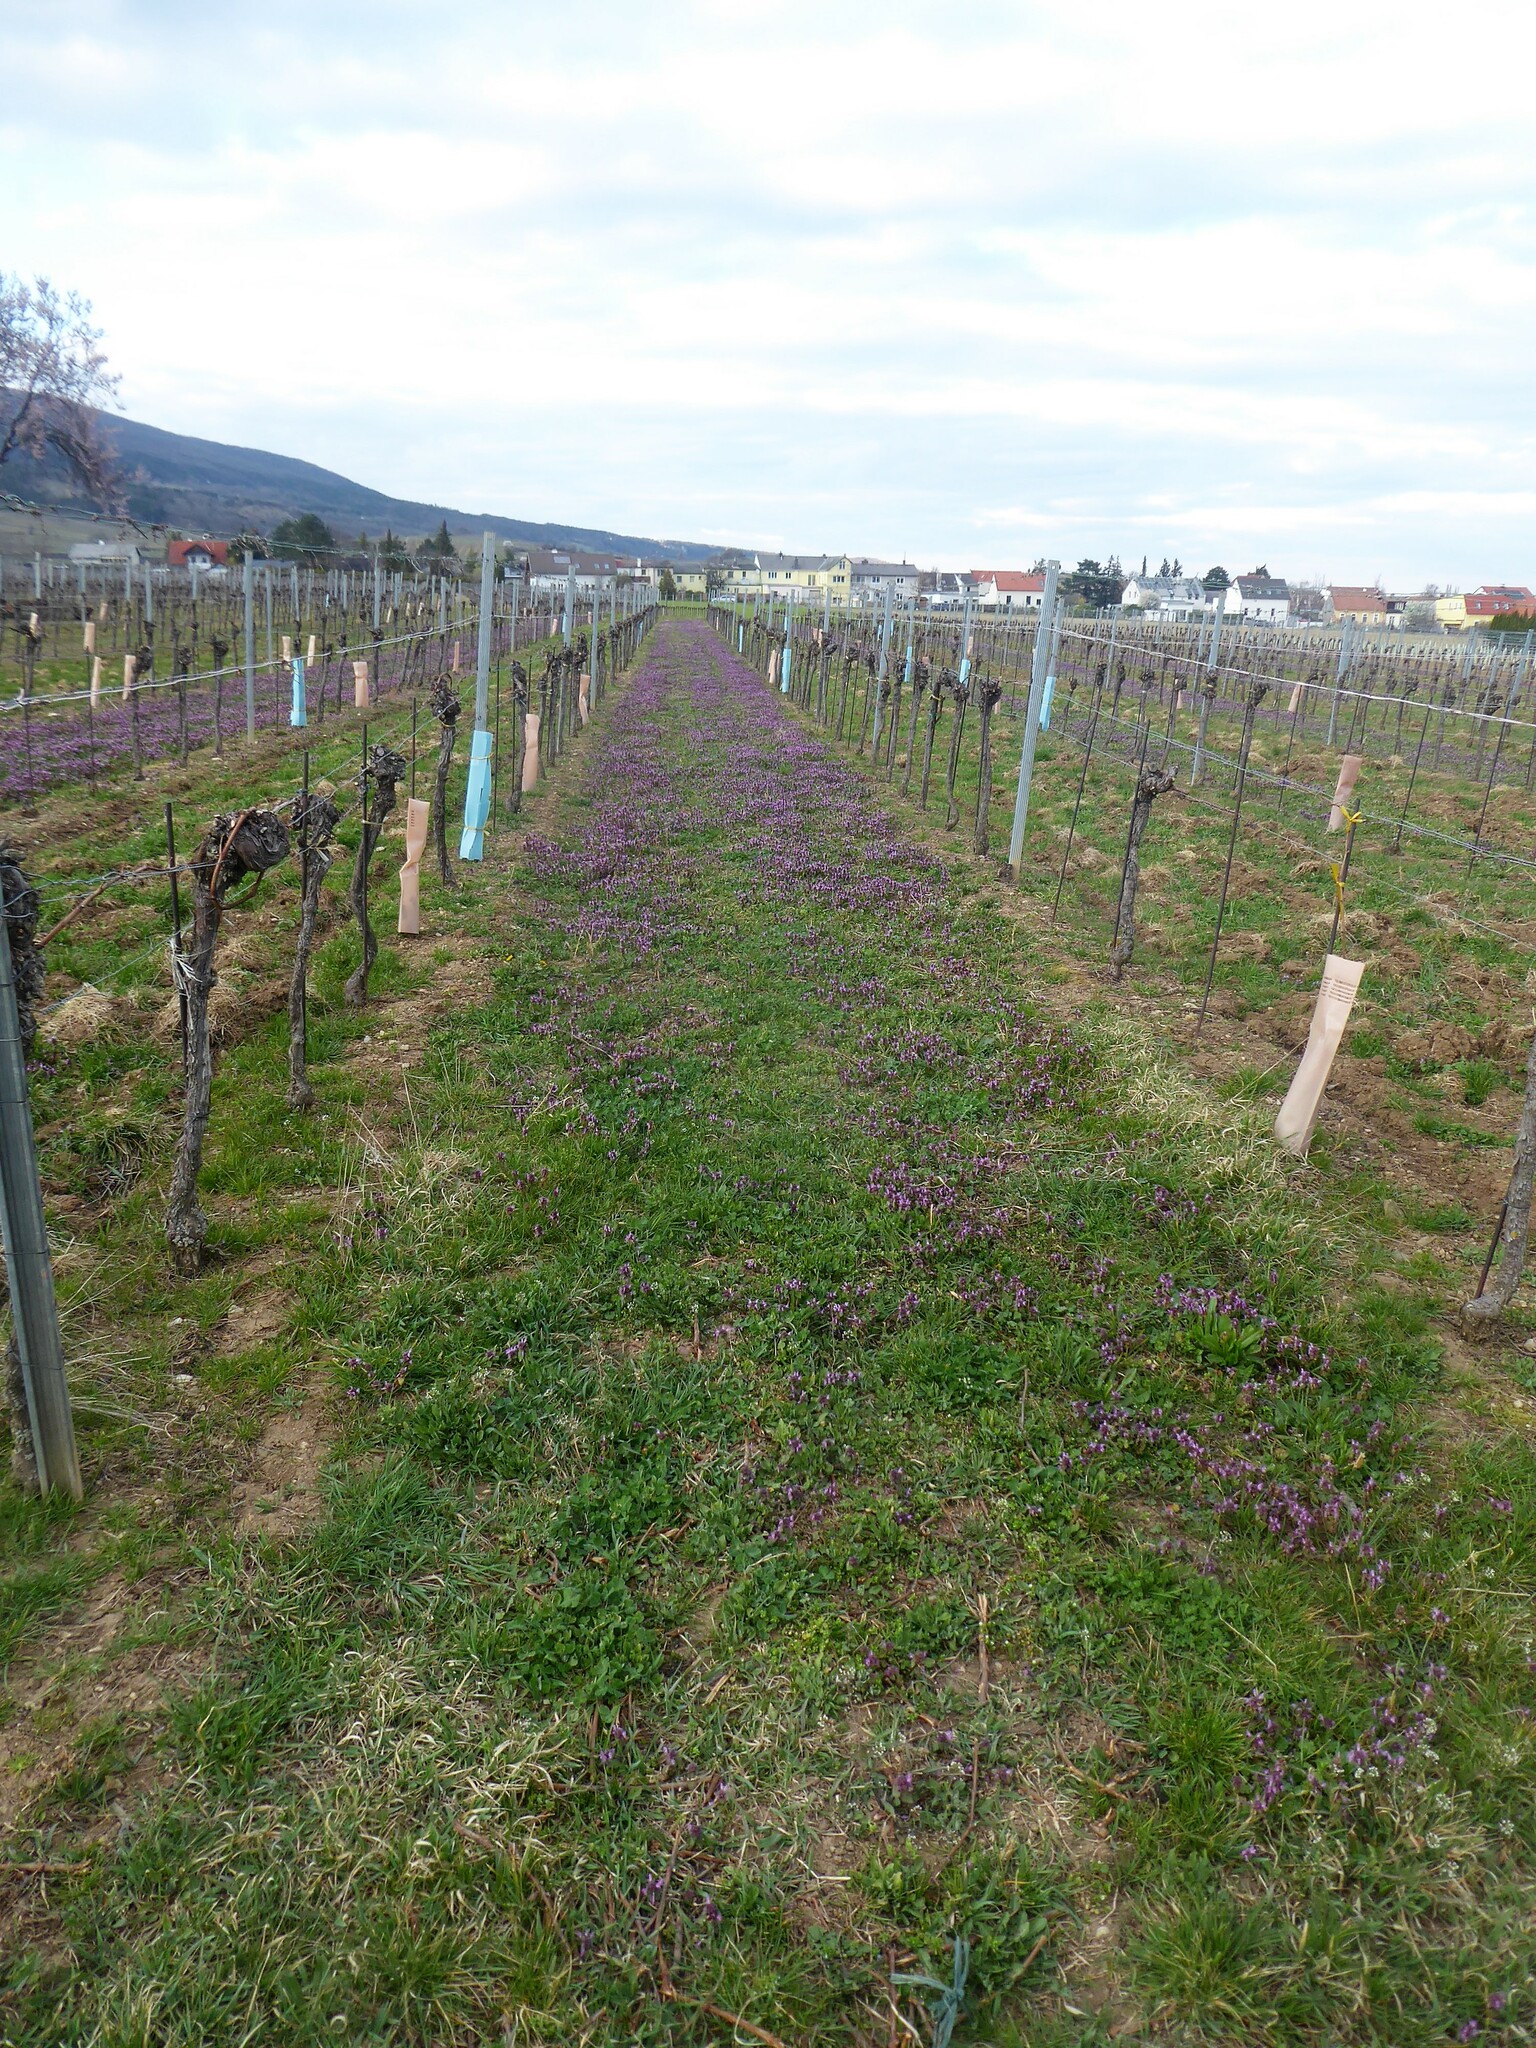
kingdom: Plantae
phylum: Tracheophyta
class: Magnoliopsida
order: Lamiales
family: Lamiaceae
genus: Lamium
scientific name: Lamium purpureum
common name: Red dead-nettle
